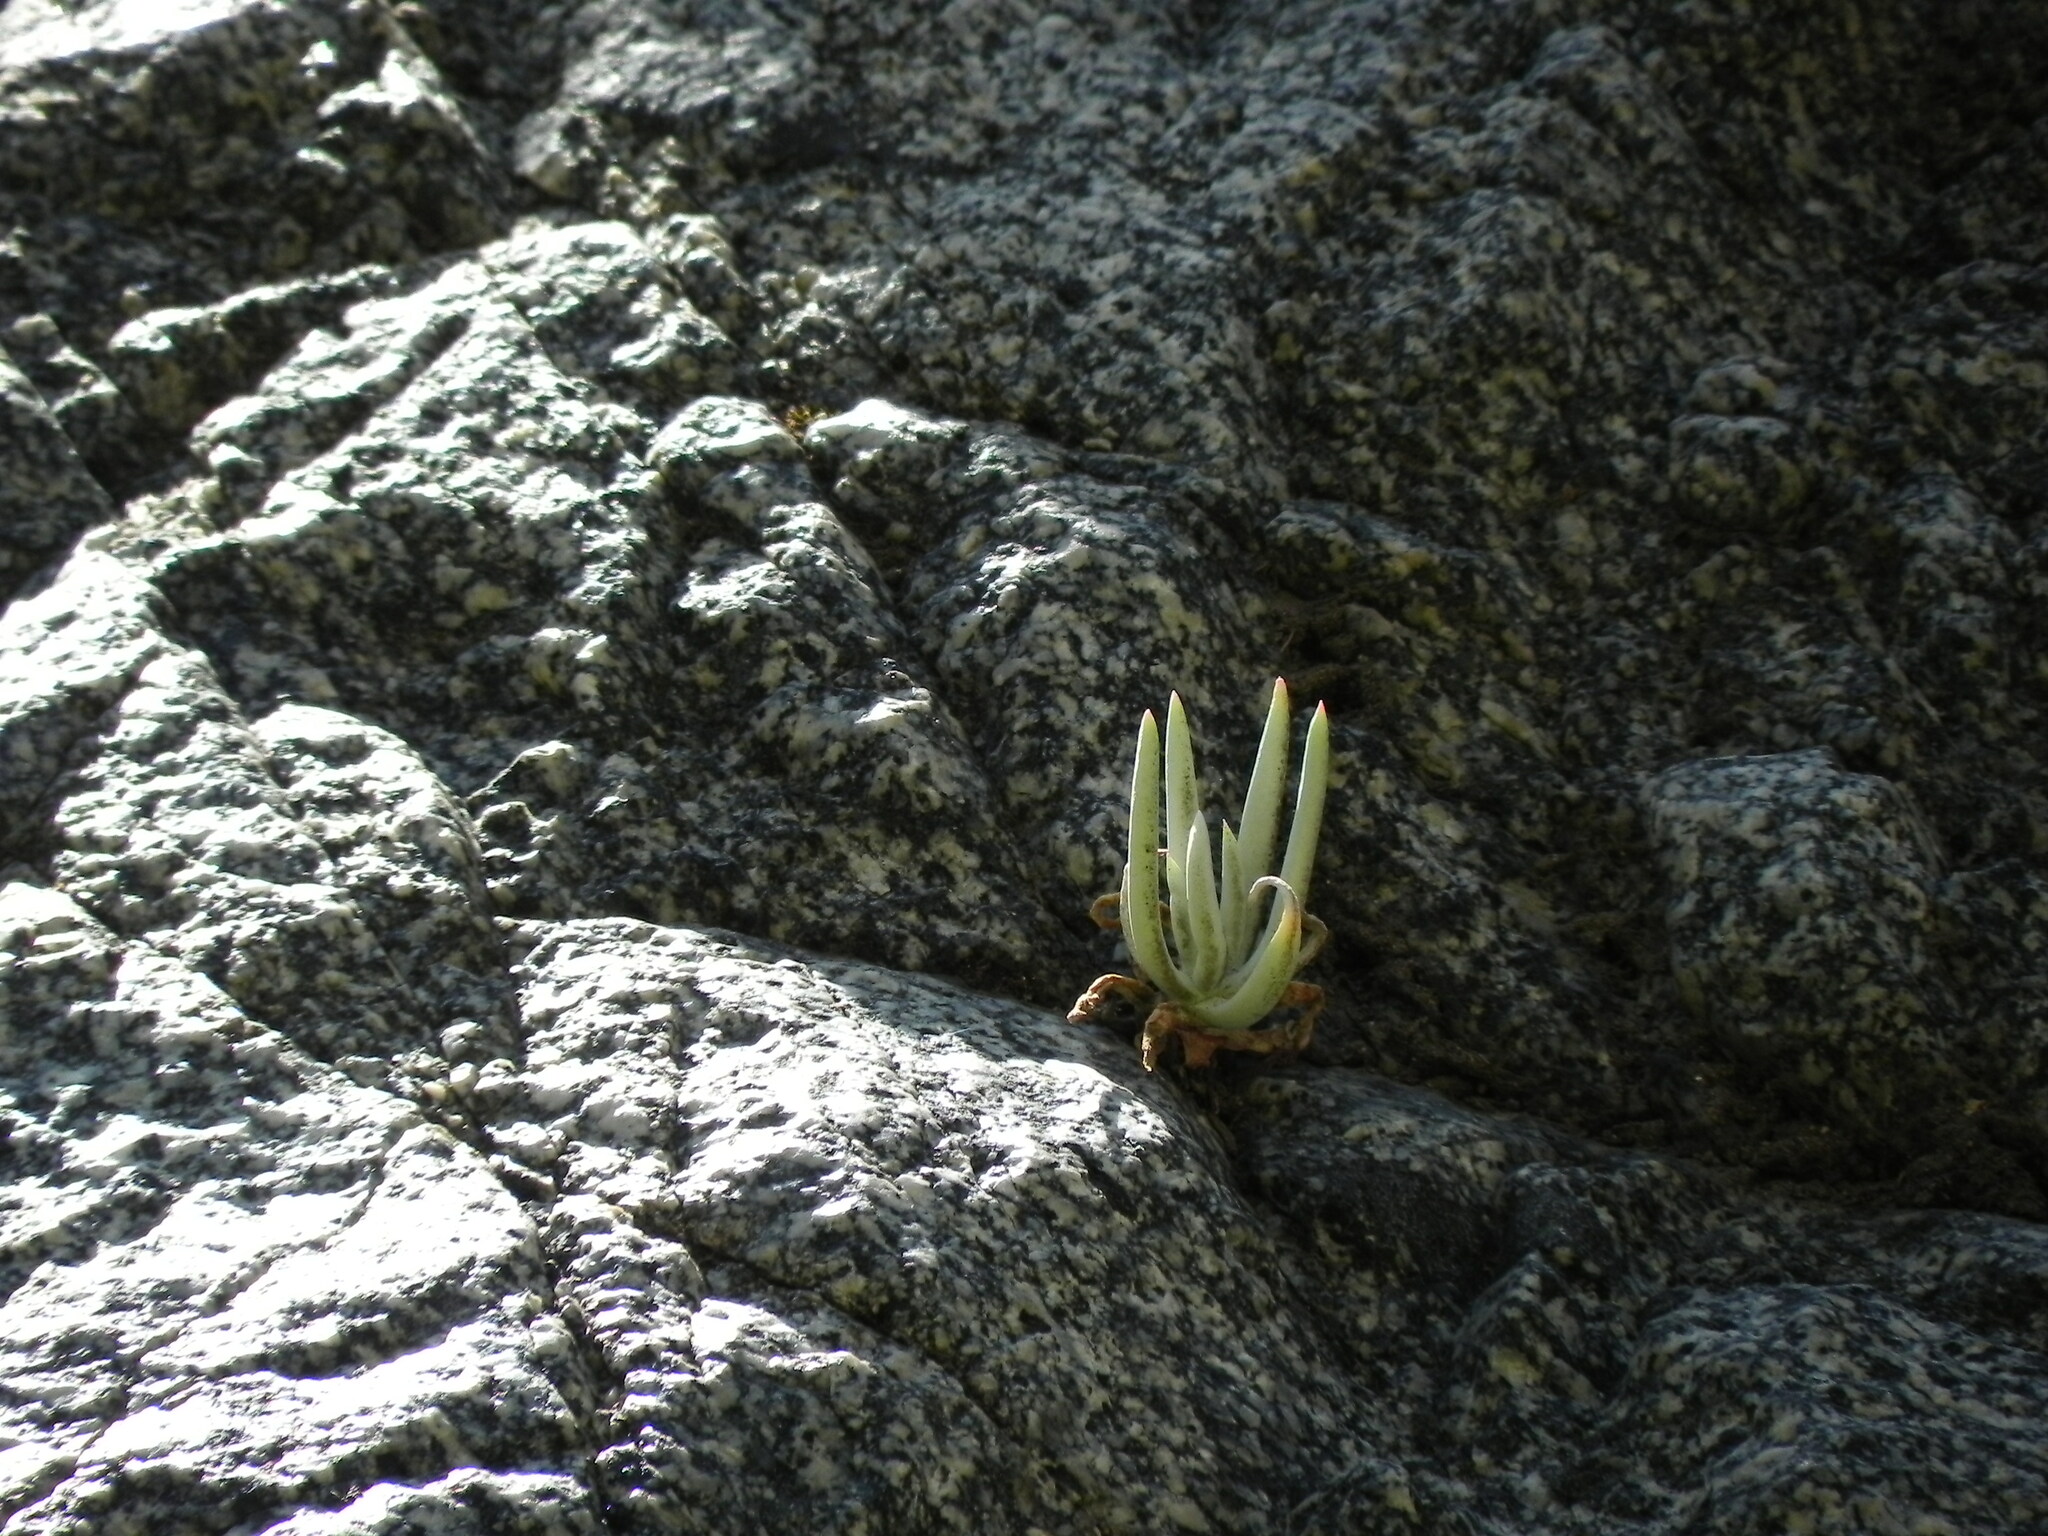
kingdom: Plantae
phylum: Tracheophyta
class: Magnoliopsida
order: Saxifragales
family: Crassulaceae
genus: Dudleya
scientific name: Dudleya densiflora
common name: San gabriel mountains dudleya
